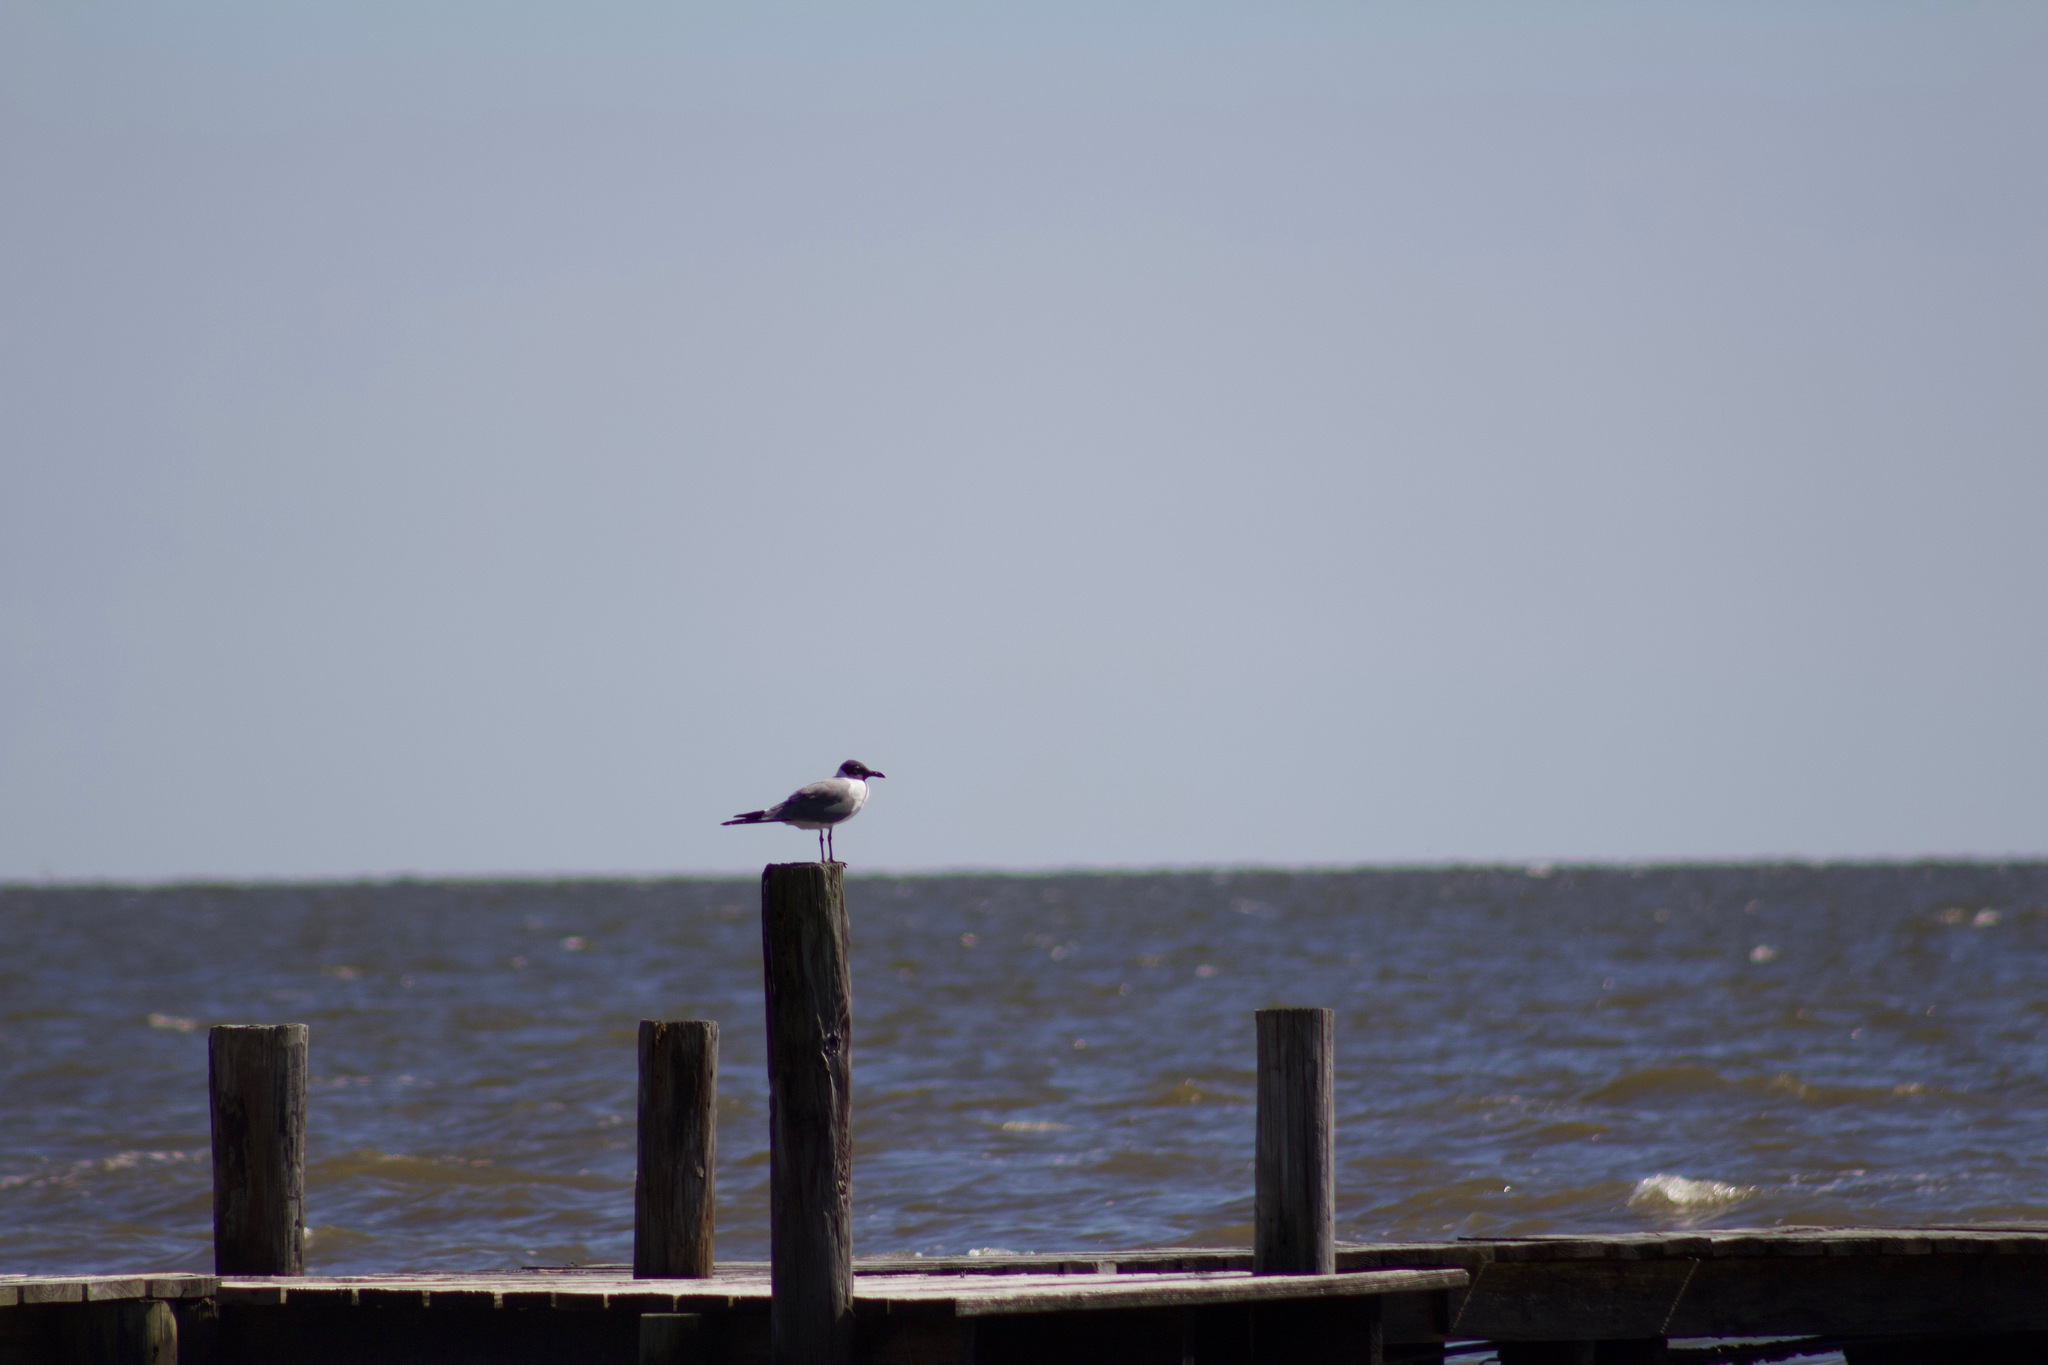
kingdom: Animalia
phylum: Chordata
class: Aves
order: Charadriiformes
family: Laridae
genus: Leucophaeus
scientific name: Leucophaeus atricilla
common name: Laughing gull
